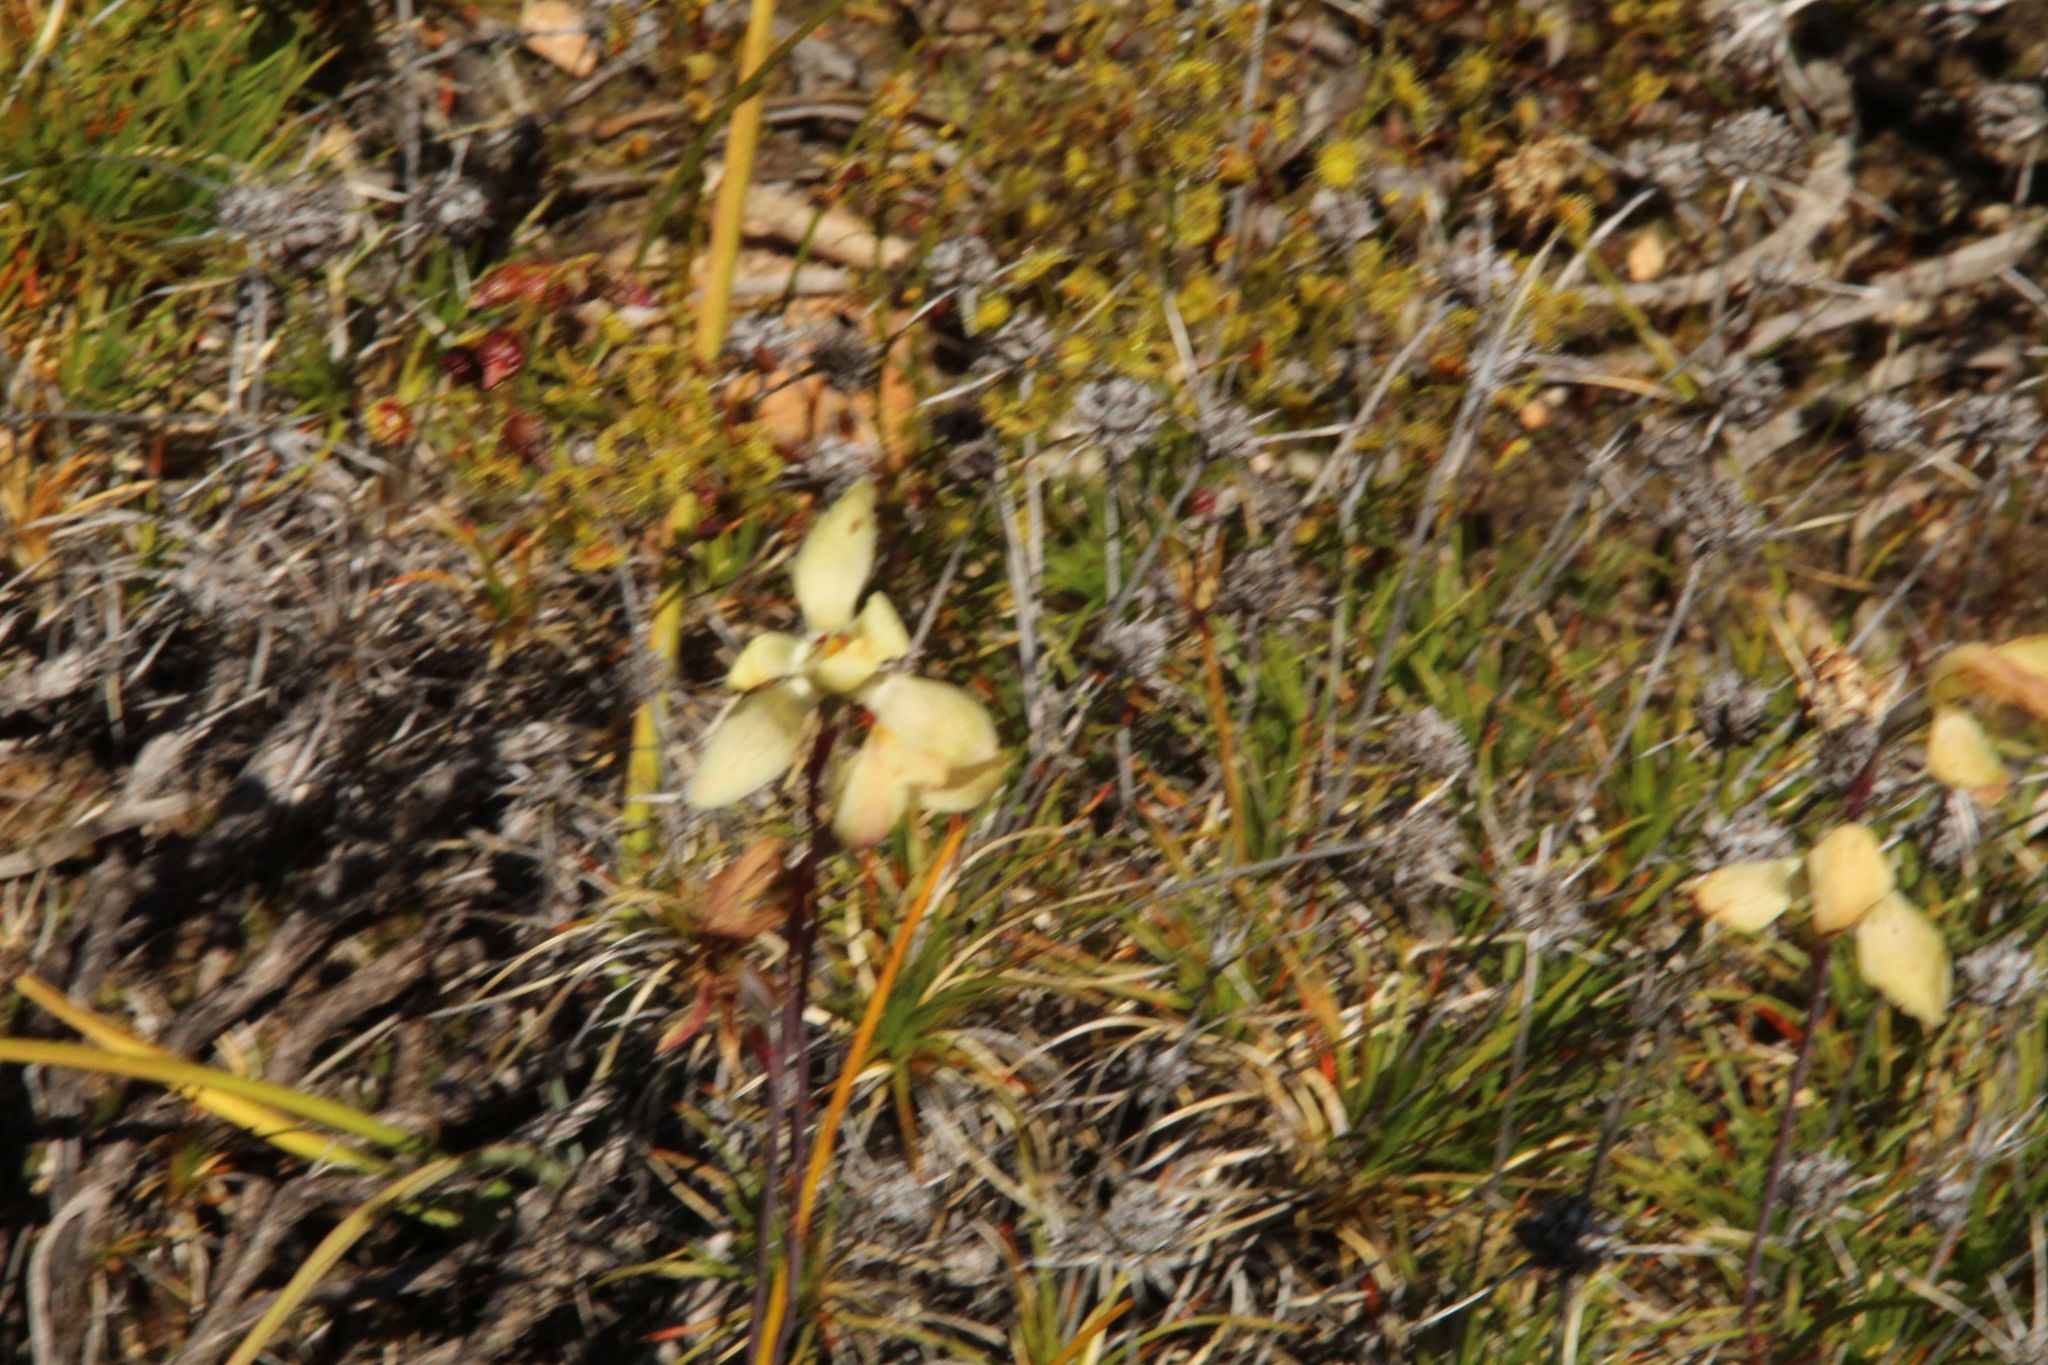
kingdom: Plantae
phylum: Tracheophyta
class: Liliopsida
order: Asparagales
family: Orchidaceae
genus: Thelymitra
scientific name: Thelymitra antennifera
